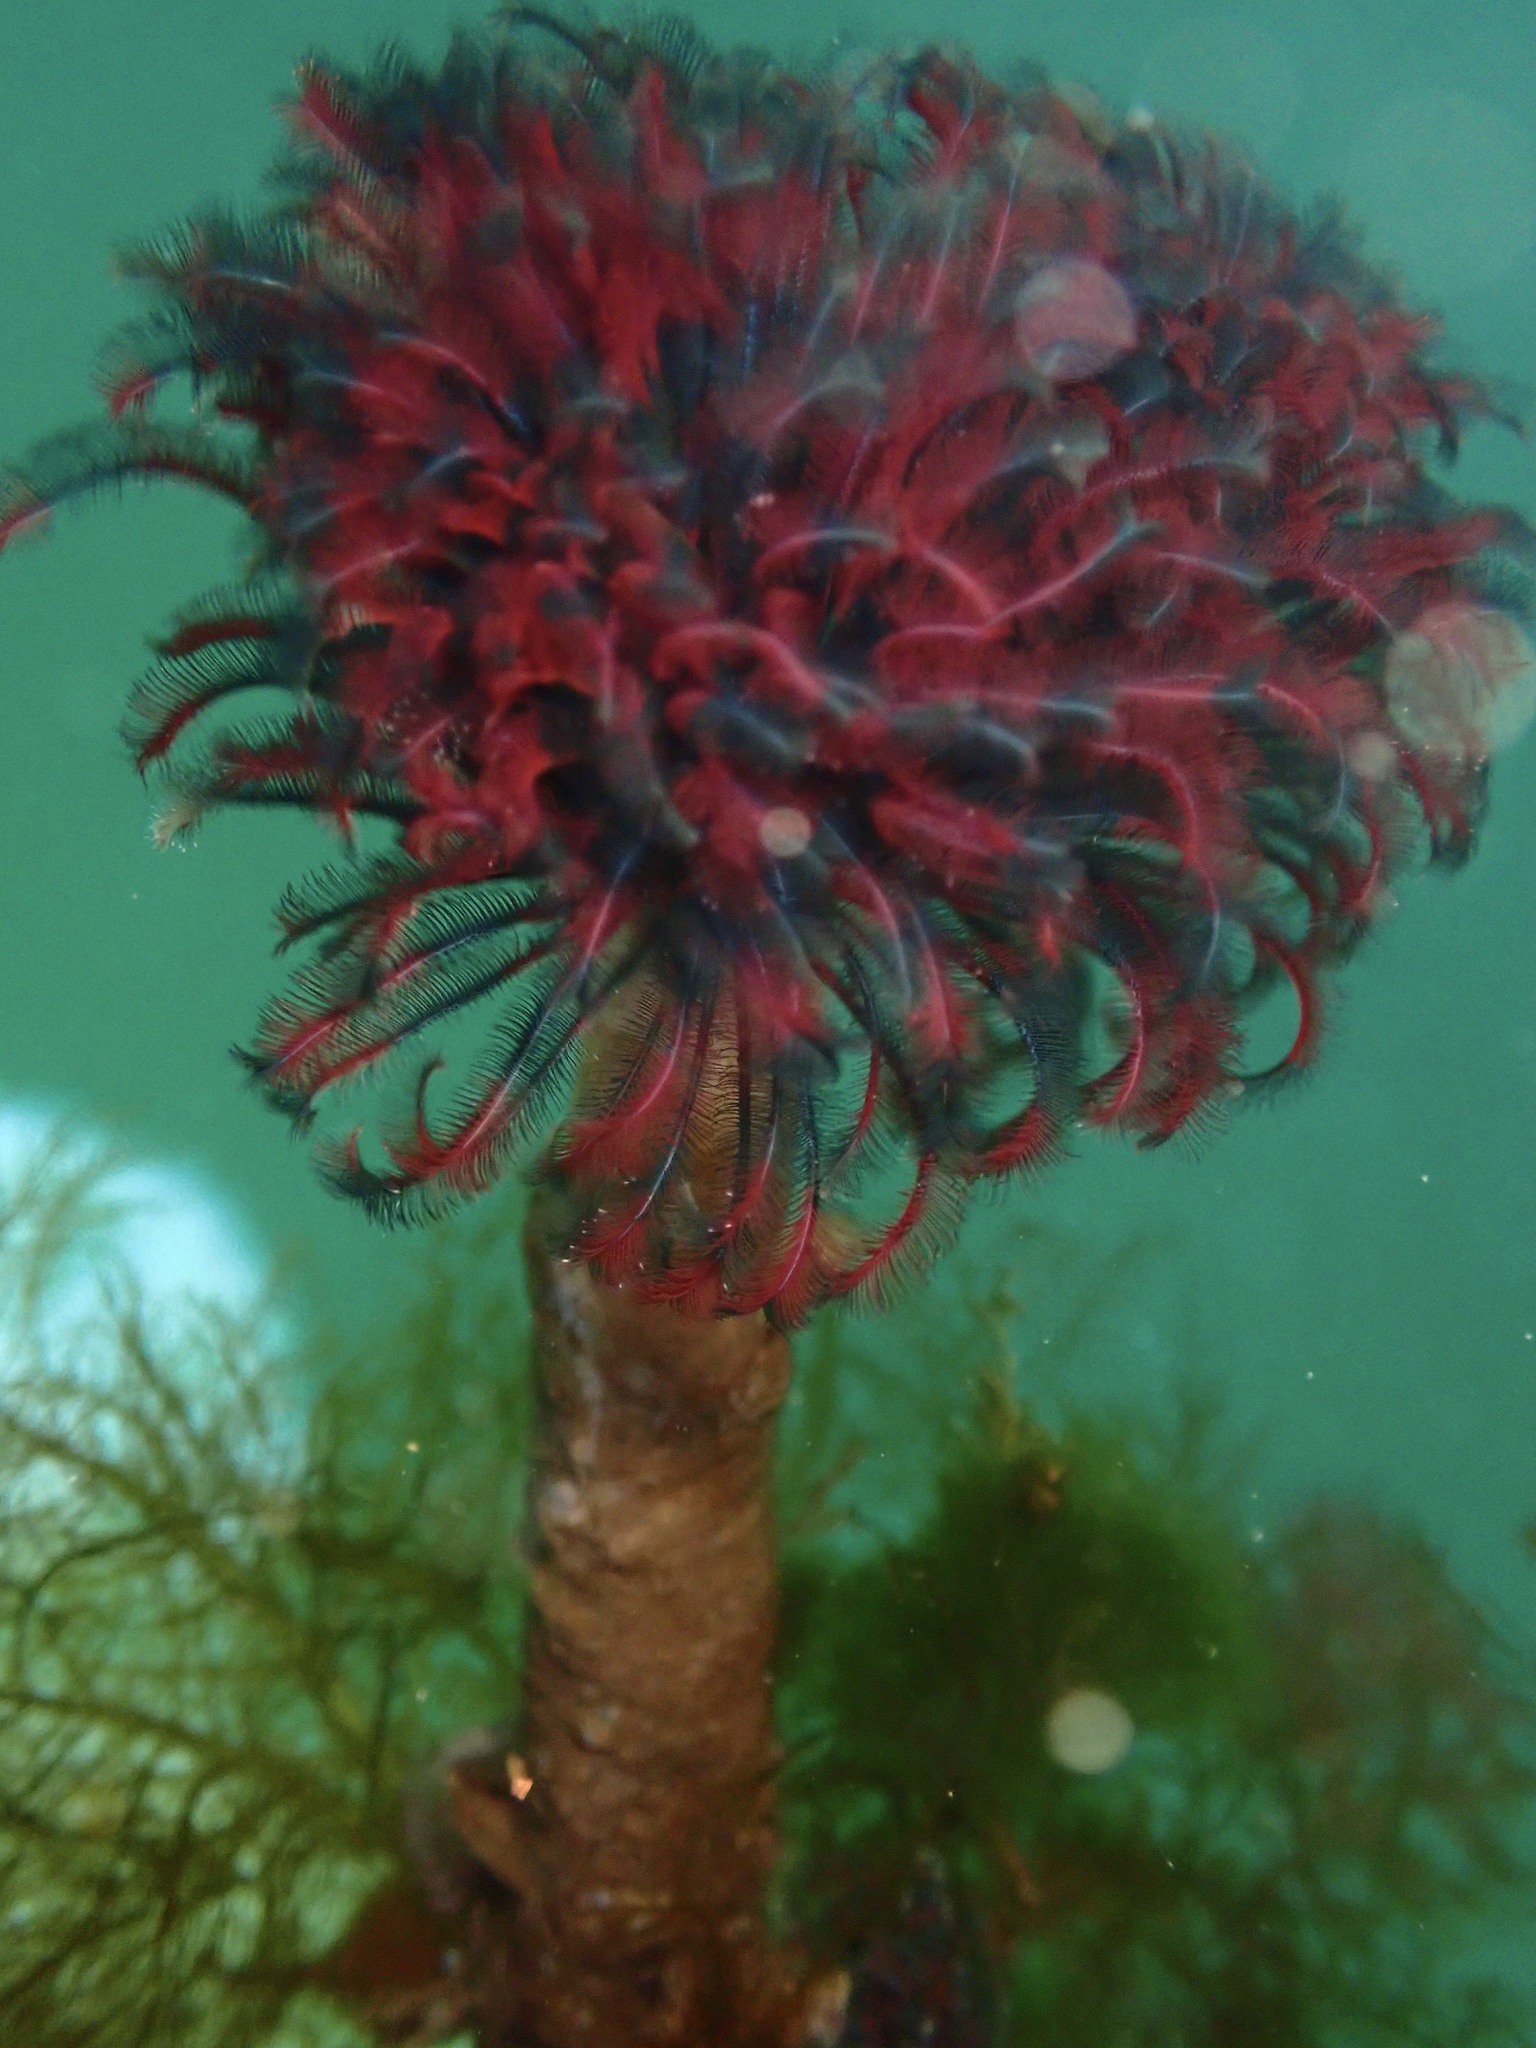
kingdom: Animalia
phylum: Annelida
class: Polychaeta
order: Sabellida
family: Sabellidae
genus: Eudistylia
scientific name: Eudistylia vancouveri
